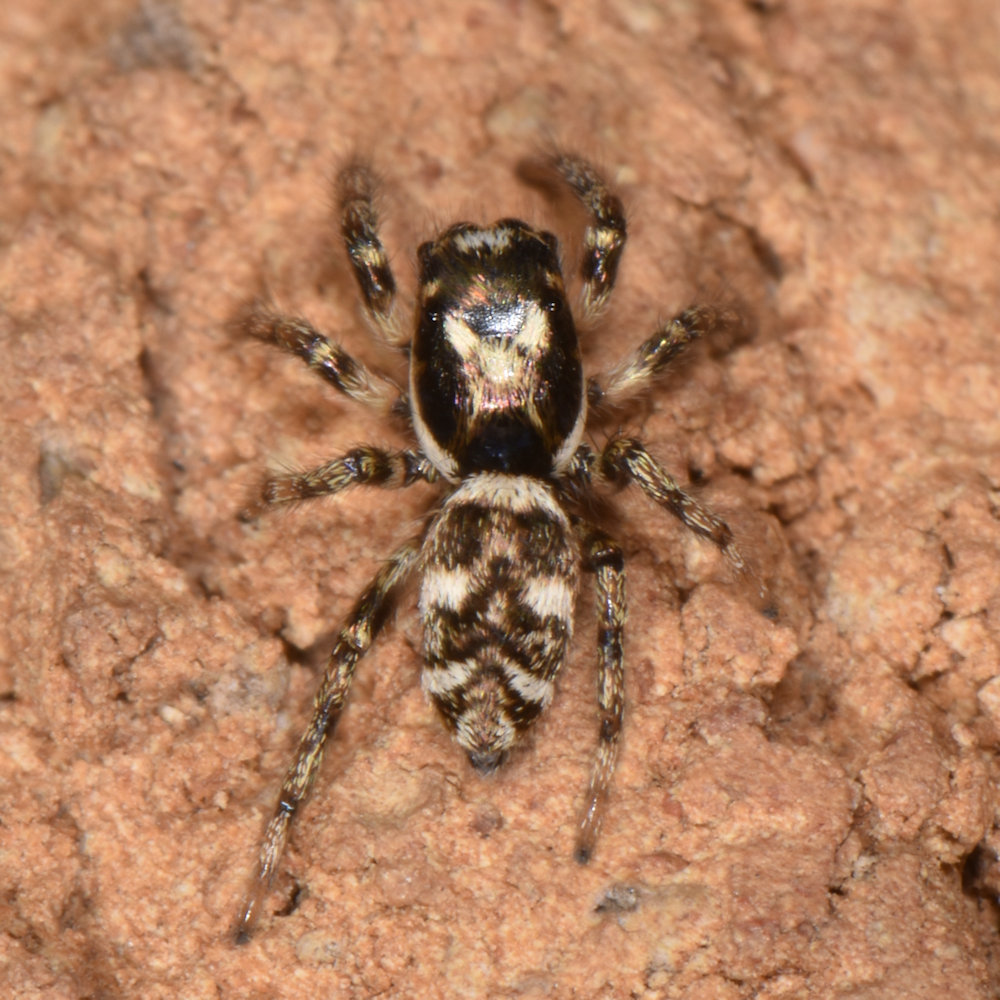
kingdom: Animalia
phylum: Arthropoda
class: Arachnida
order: Araneae
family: Salticidae
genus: Salticus
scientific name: Salticus scenicus
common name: Zebra jumper
